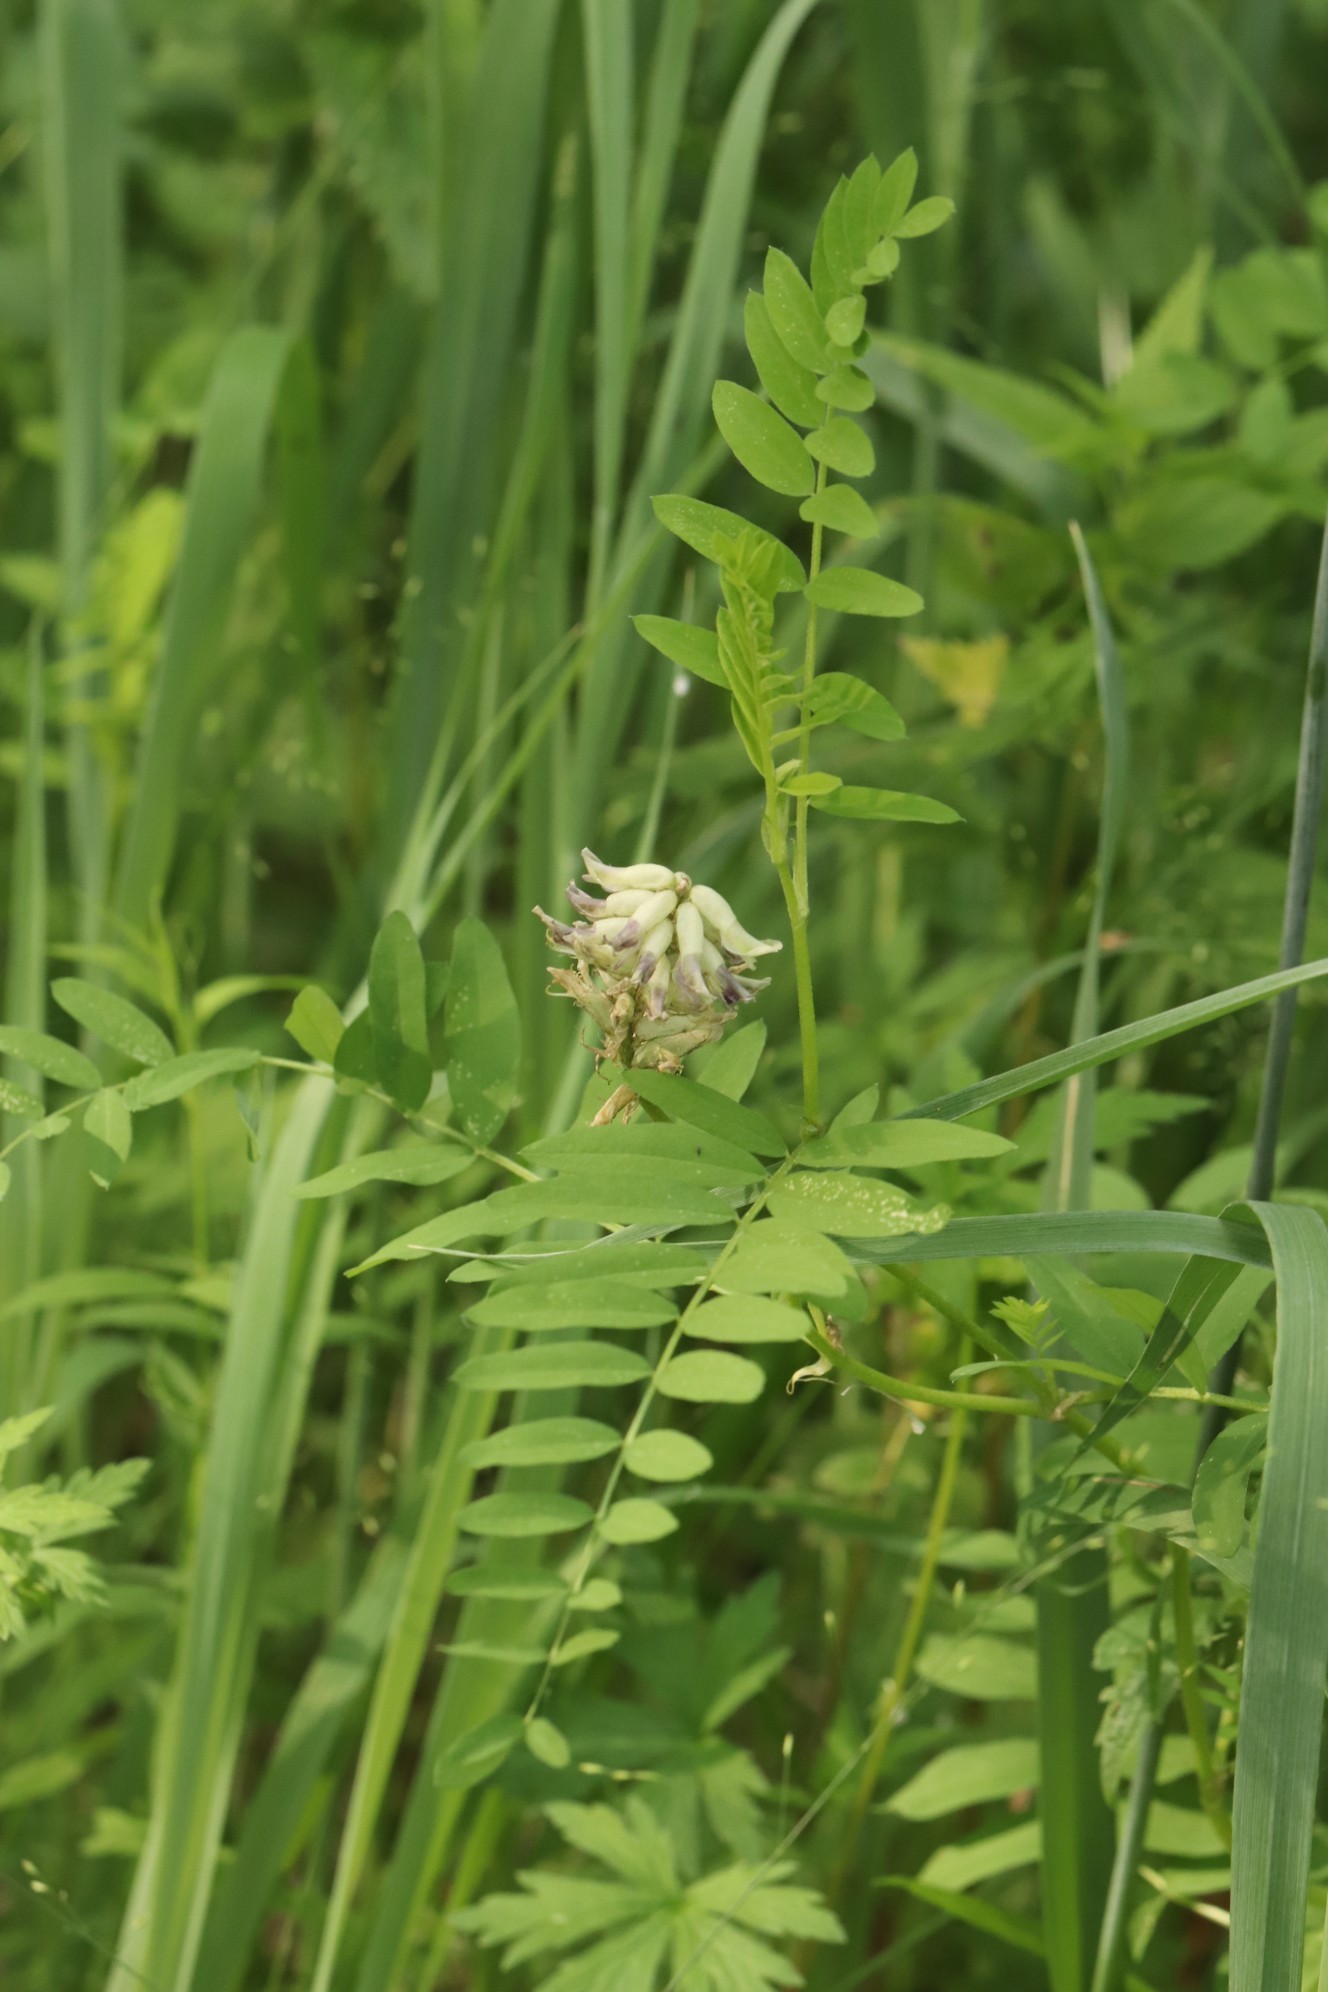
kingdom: Plantae
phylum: Tracheophyta
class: Magnoliopsida
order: Fabales
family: Fabaceae
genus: Astragalus
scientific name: Astragalus uliginosus
